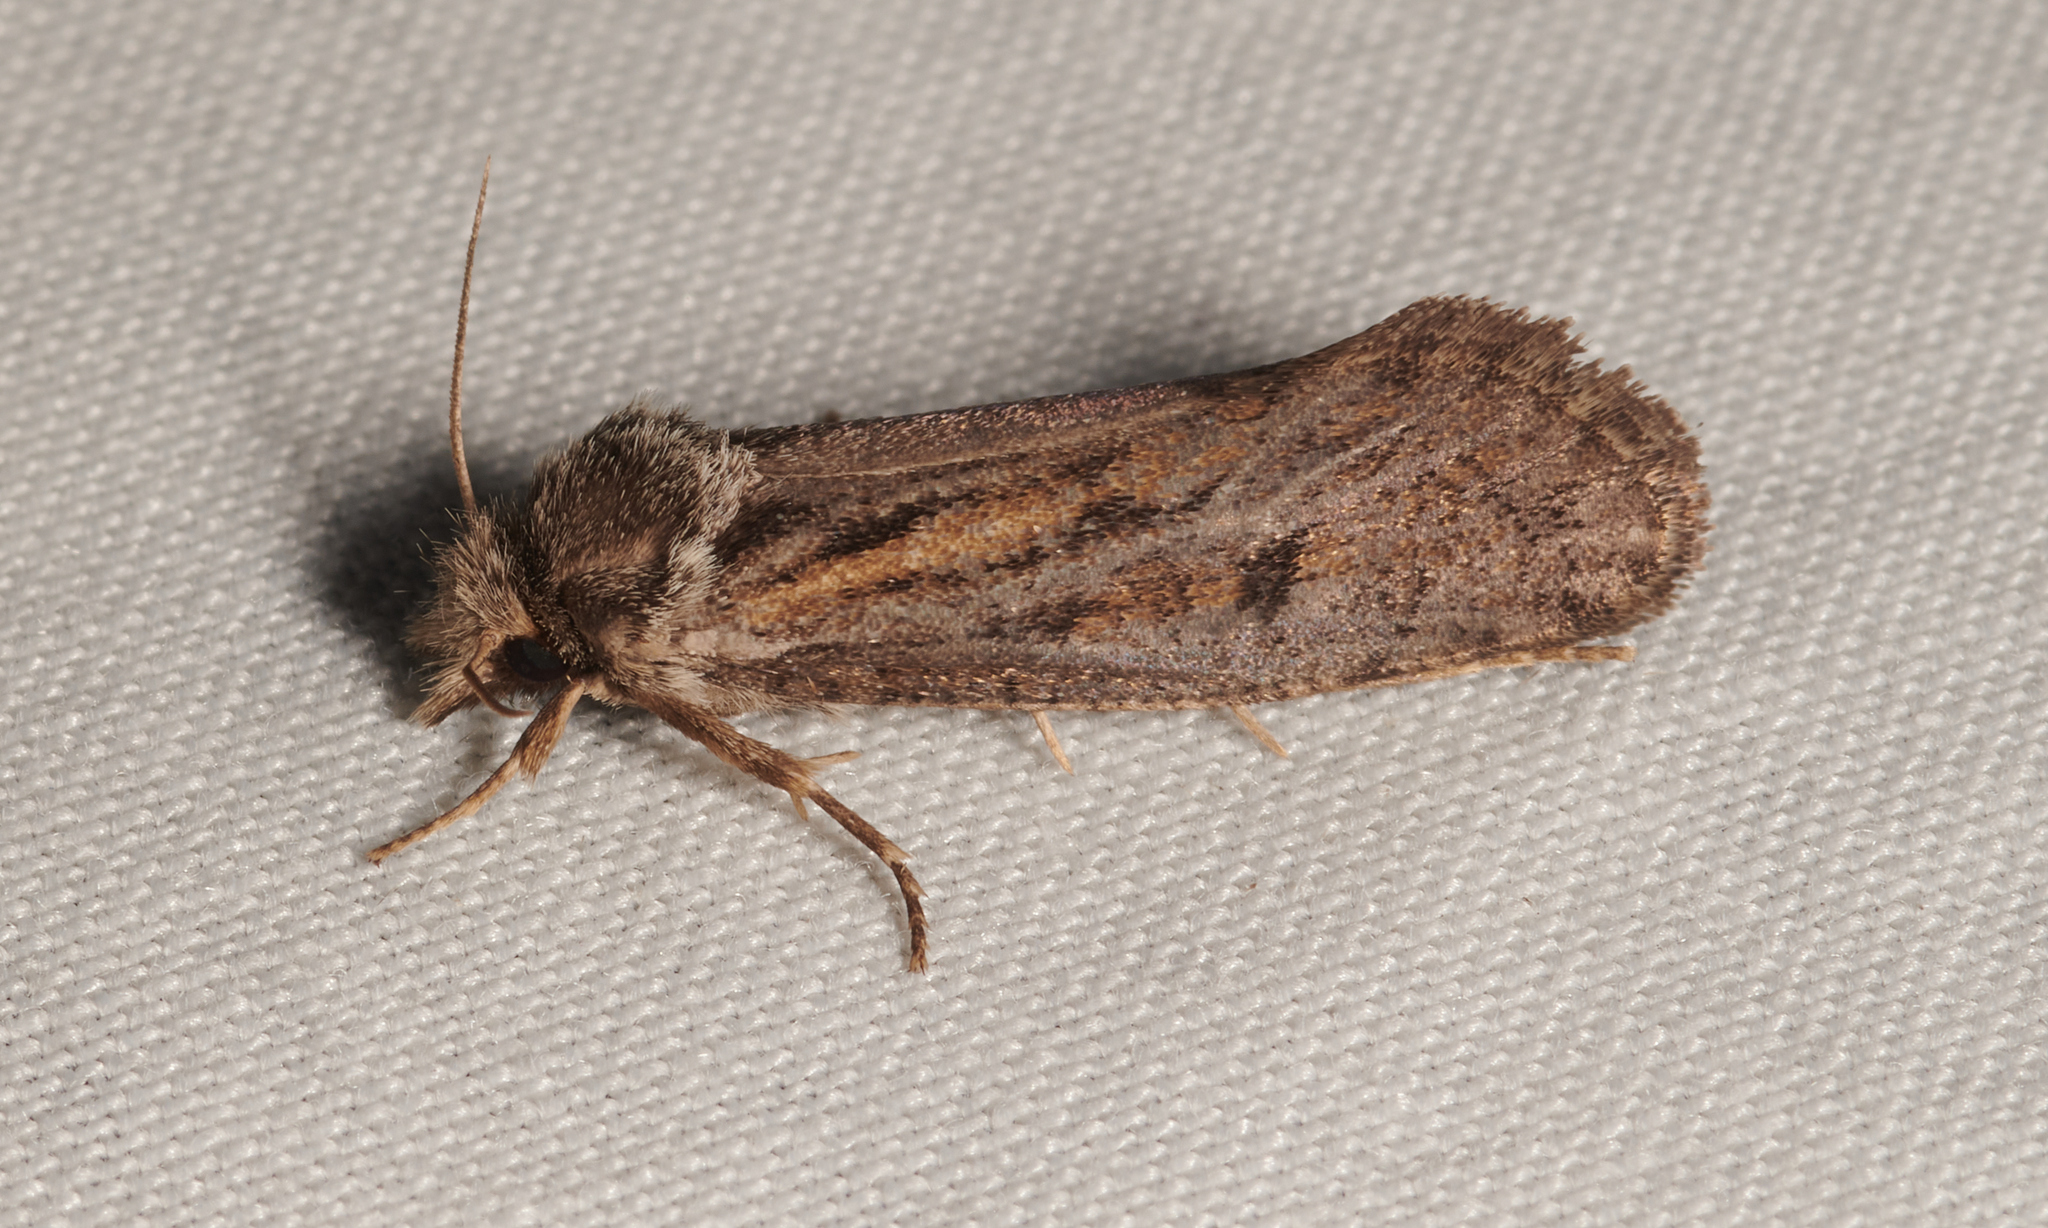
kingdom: Animalia
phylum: Arthropoda
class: Insecta
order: Lepidoptera
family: Tineidae
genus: Acrolophus
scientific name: Acrolophus popeanella
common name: Clemens' grass tubeworm moth
